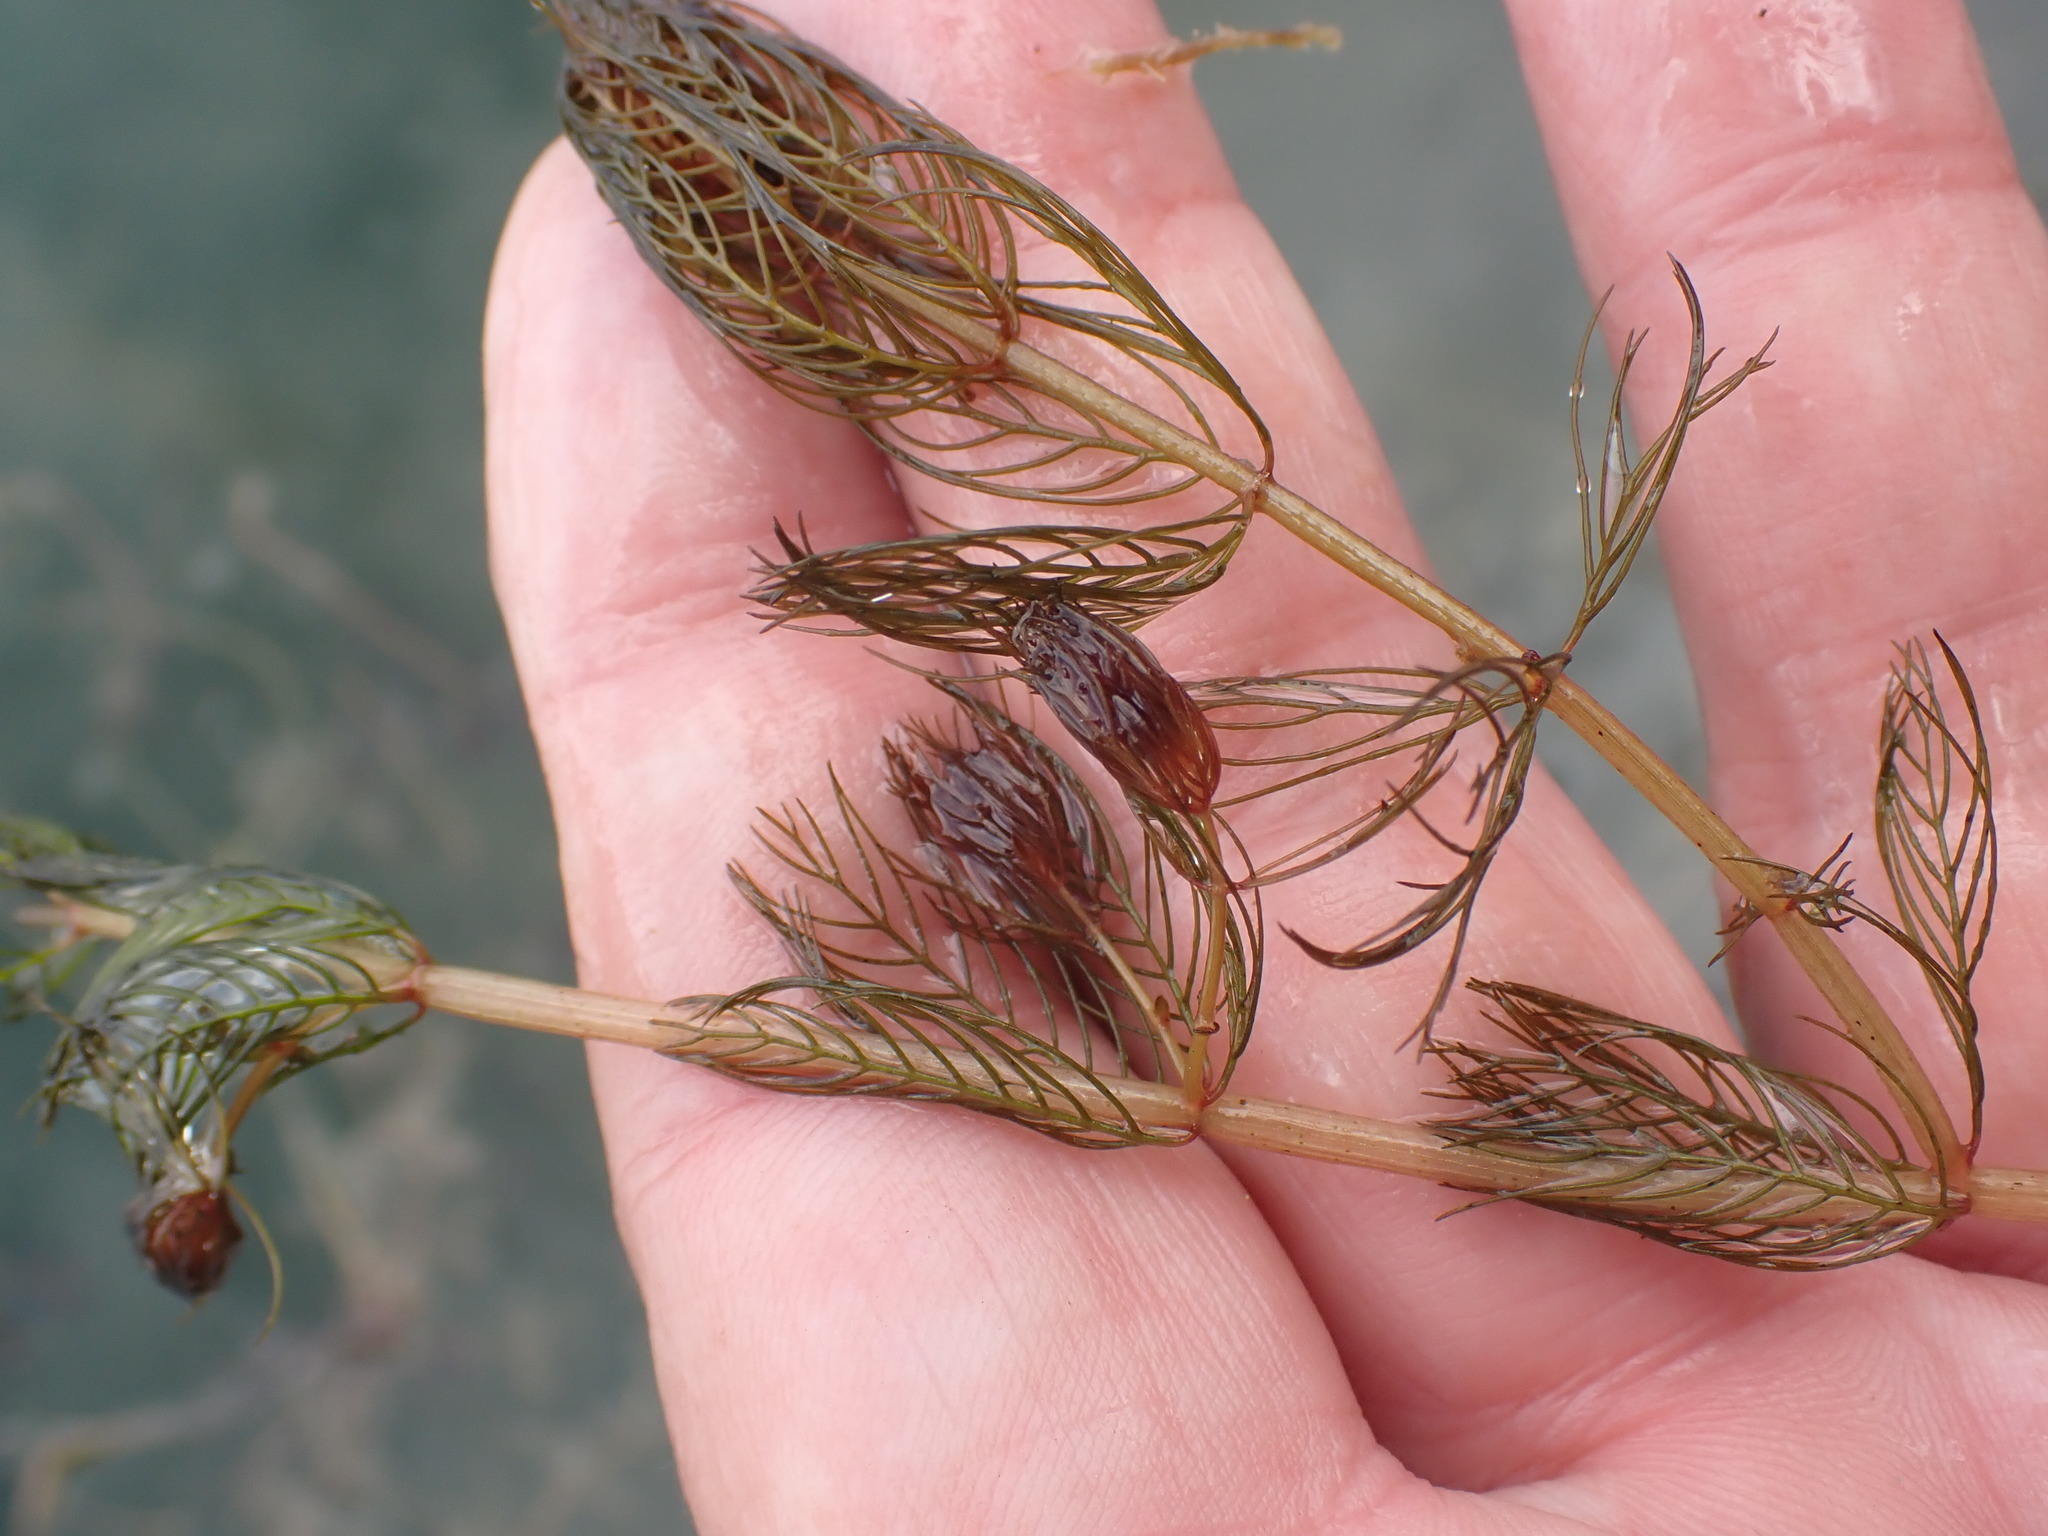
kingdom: Plantae
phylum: Tracheophyta
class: Magnoliopsida
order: Saxifragales
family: Haloragaceae
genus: Myriophyllum
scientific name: Myriophyllum spicatum
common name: Spiked water-milfoil
